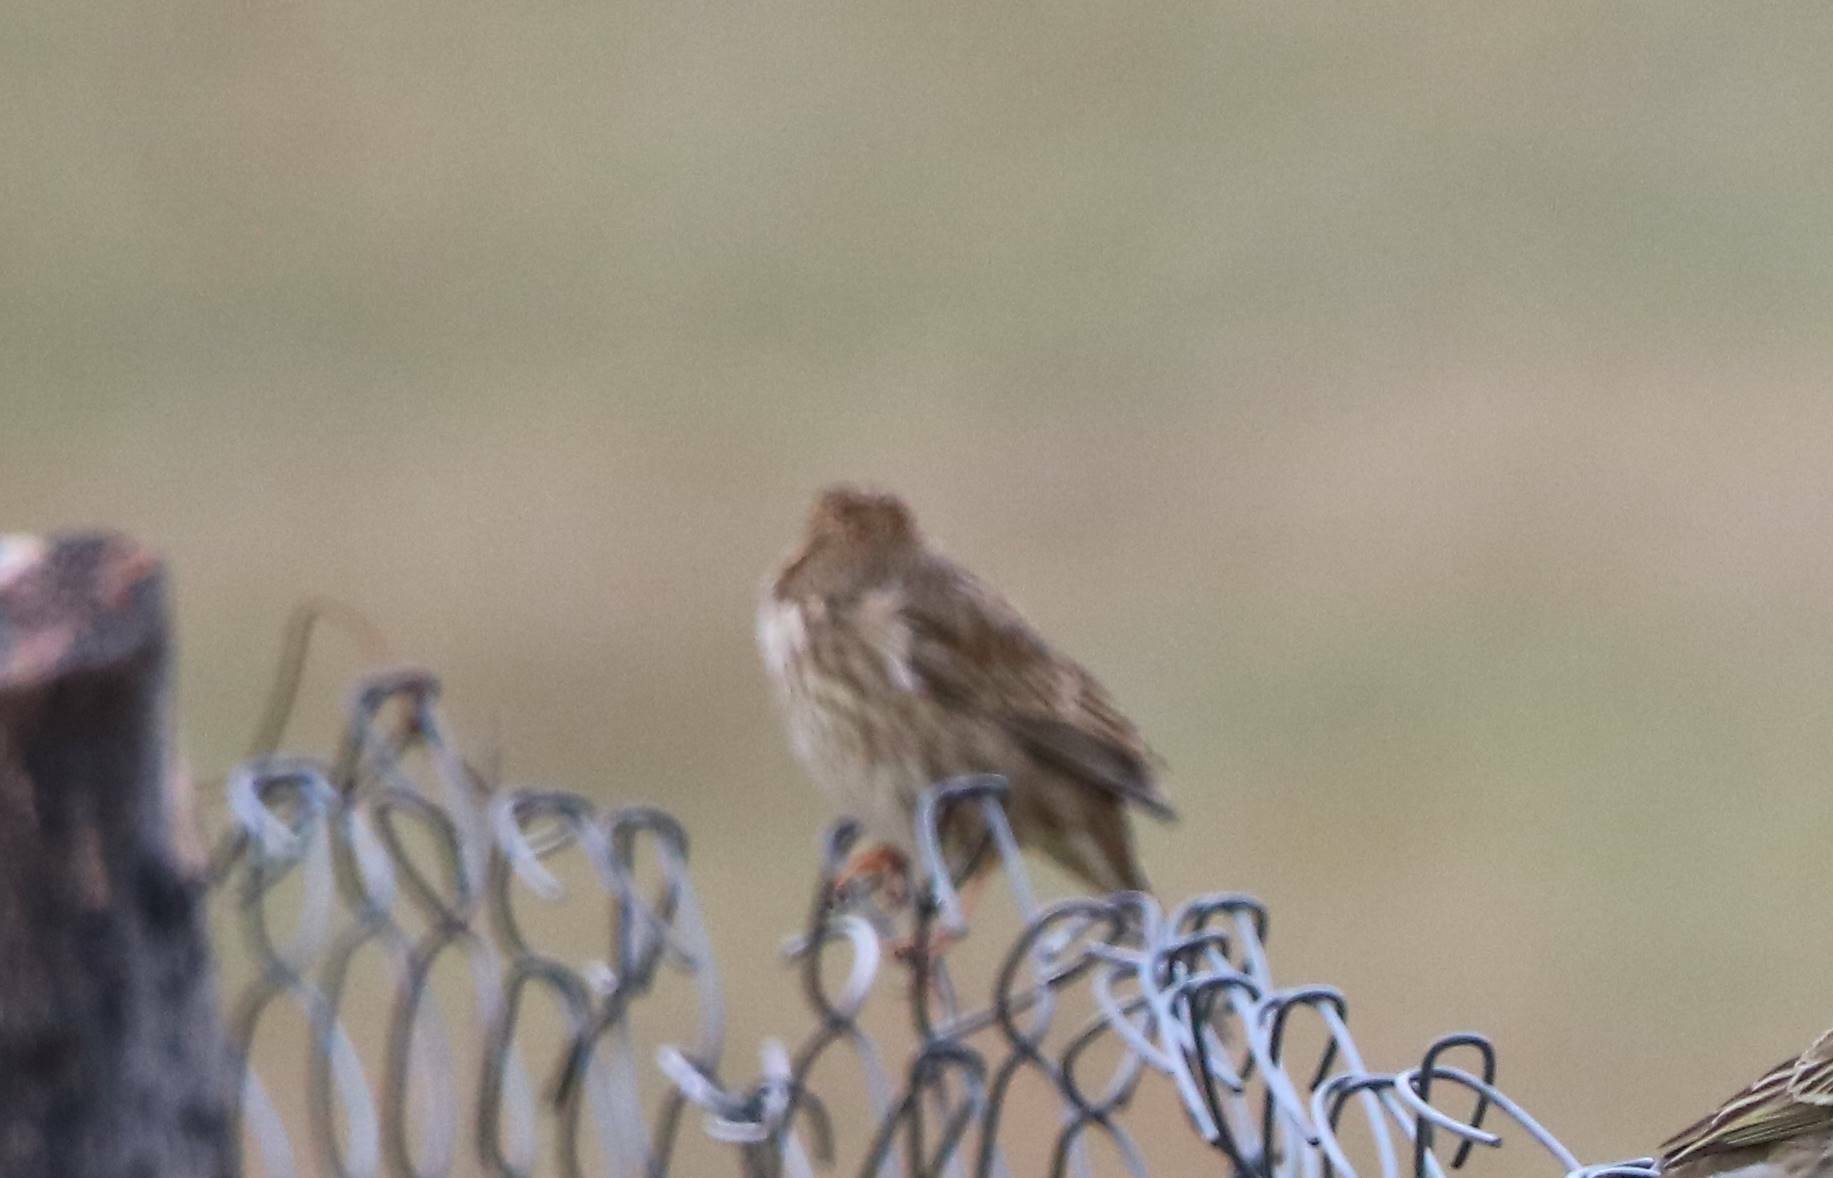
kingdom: Animalia
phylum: Chordata
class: Aves
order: Passeriformes
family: Emberizidae
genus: Emberiza
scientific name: Emberiza calandra
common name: Corn bunting
